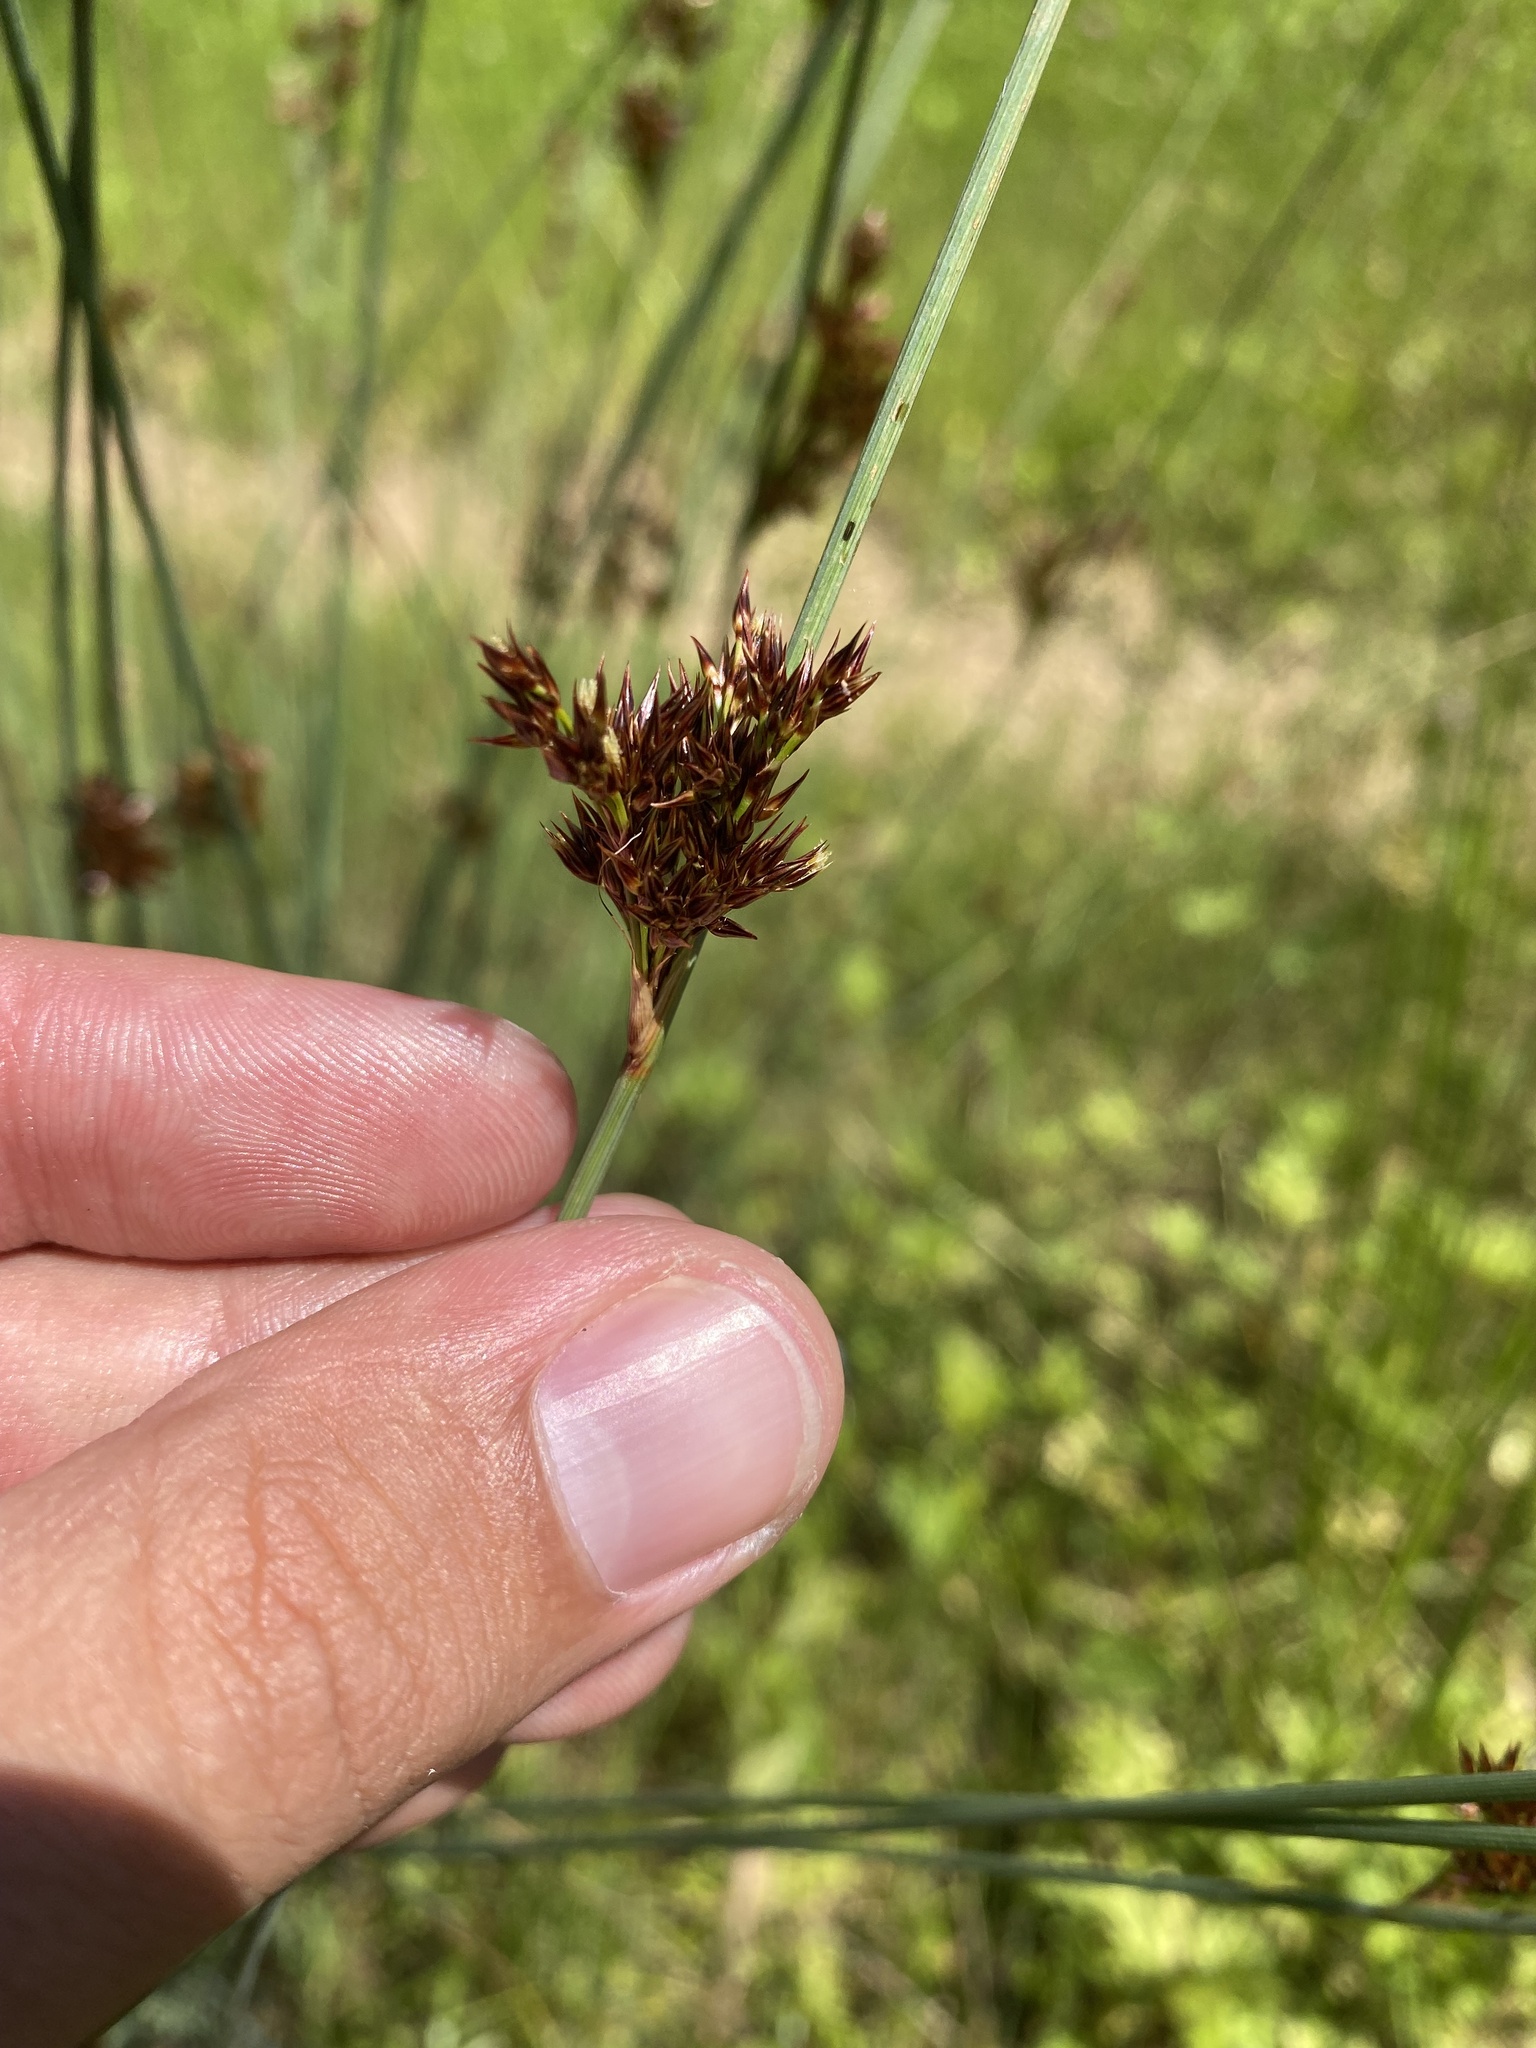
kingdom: Plantae
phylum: Tracheophyta
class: Liliopsida
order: Poales
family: Juncaceae
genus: Juncus
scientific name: Juncus inflexus
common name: Hard rush
